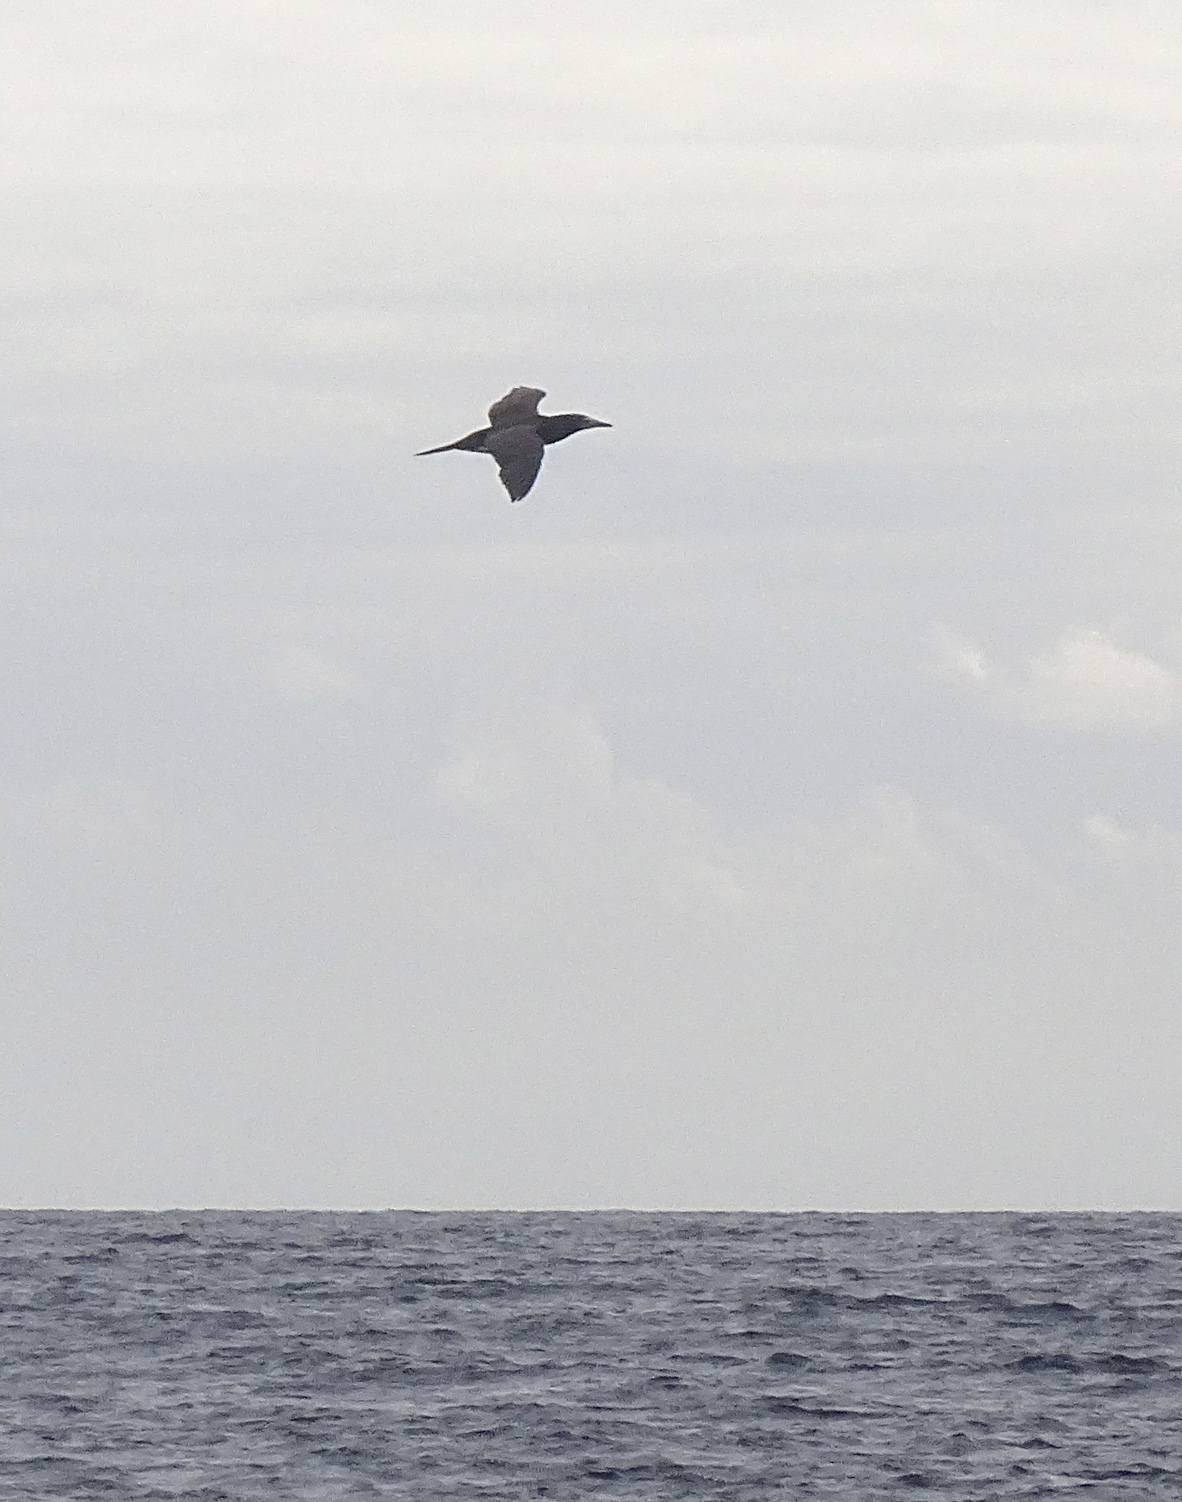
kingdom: Animalia
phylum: Chordata
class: Aves
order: Suliformes
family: Sulidae
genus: Sula
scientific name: Sula leucogaster
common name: Brown booby
